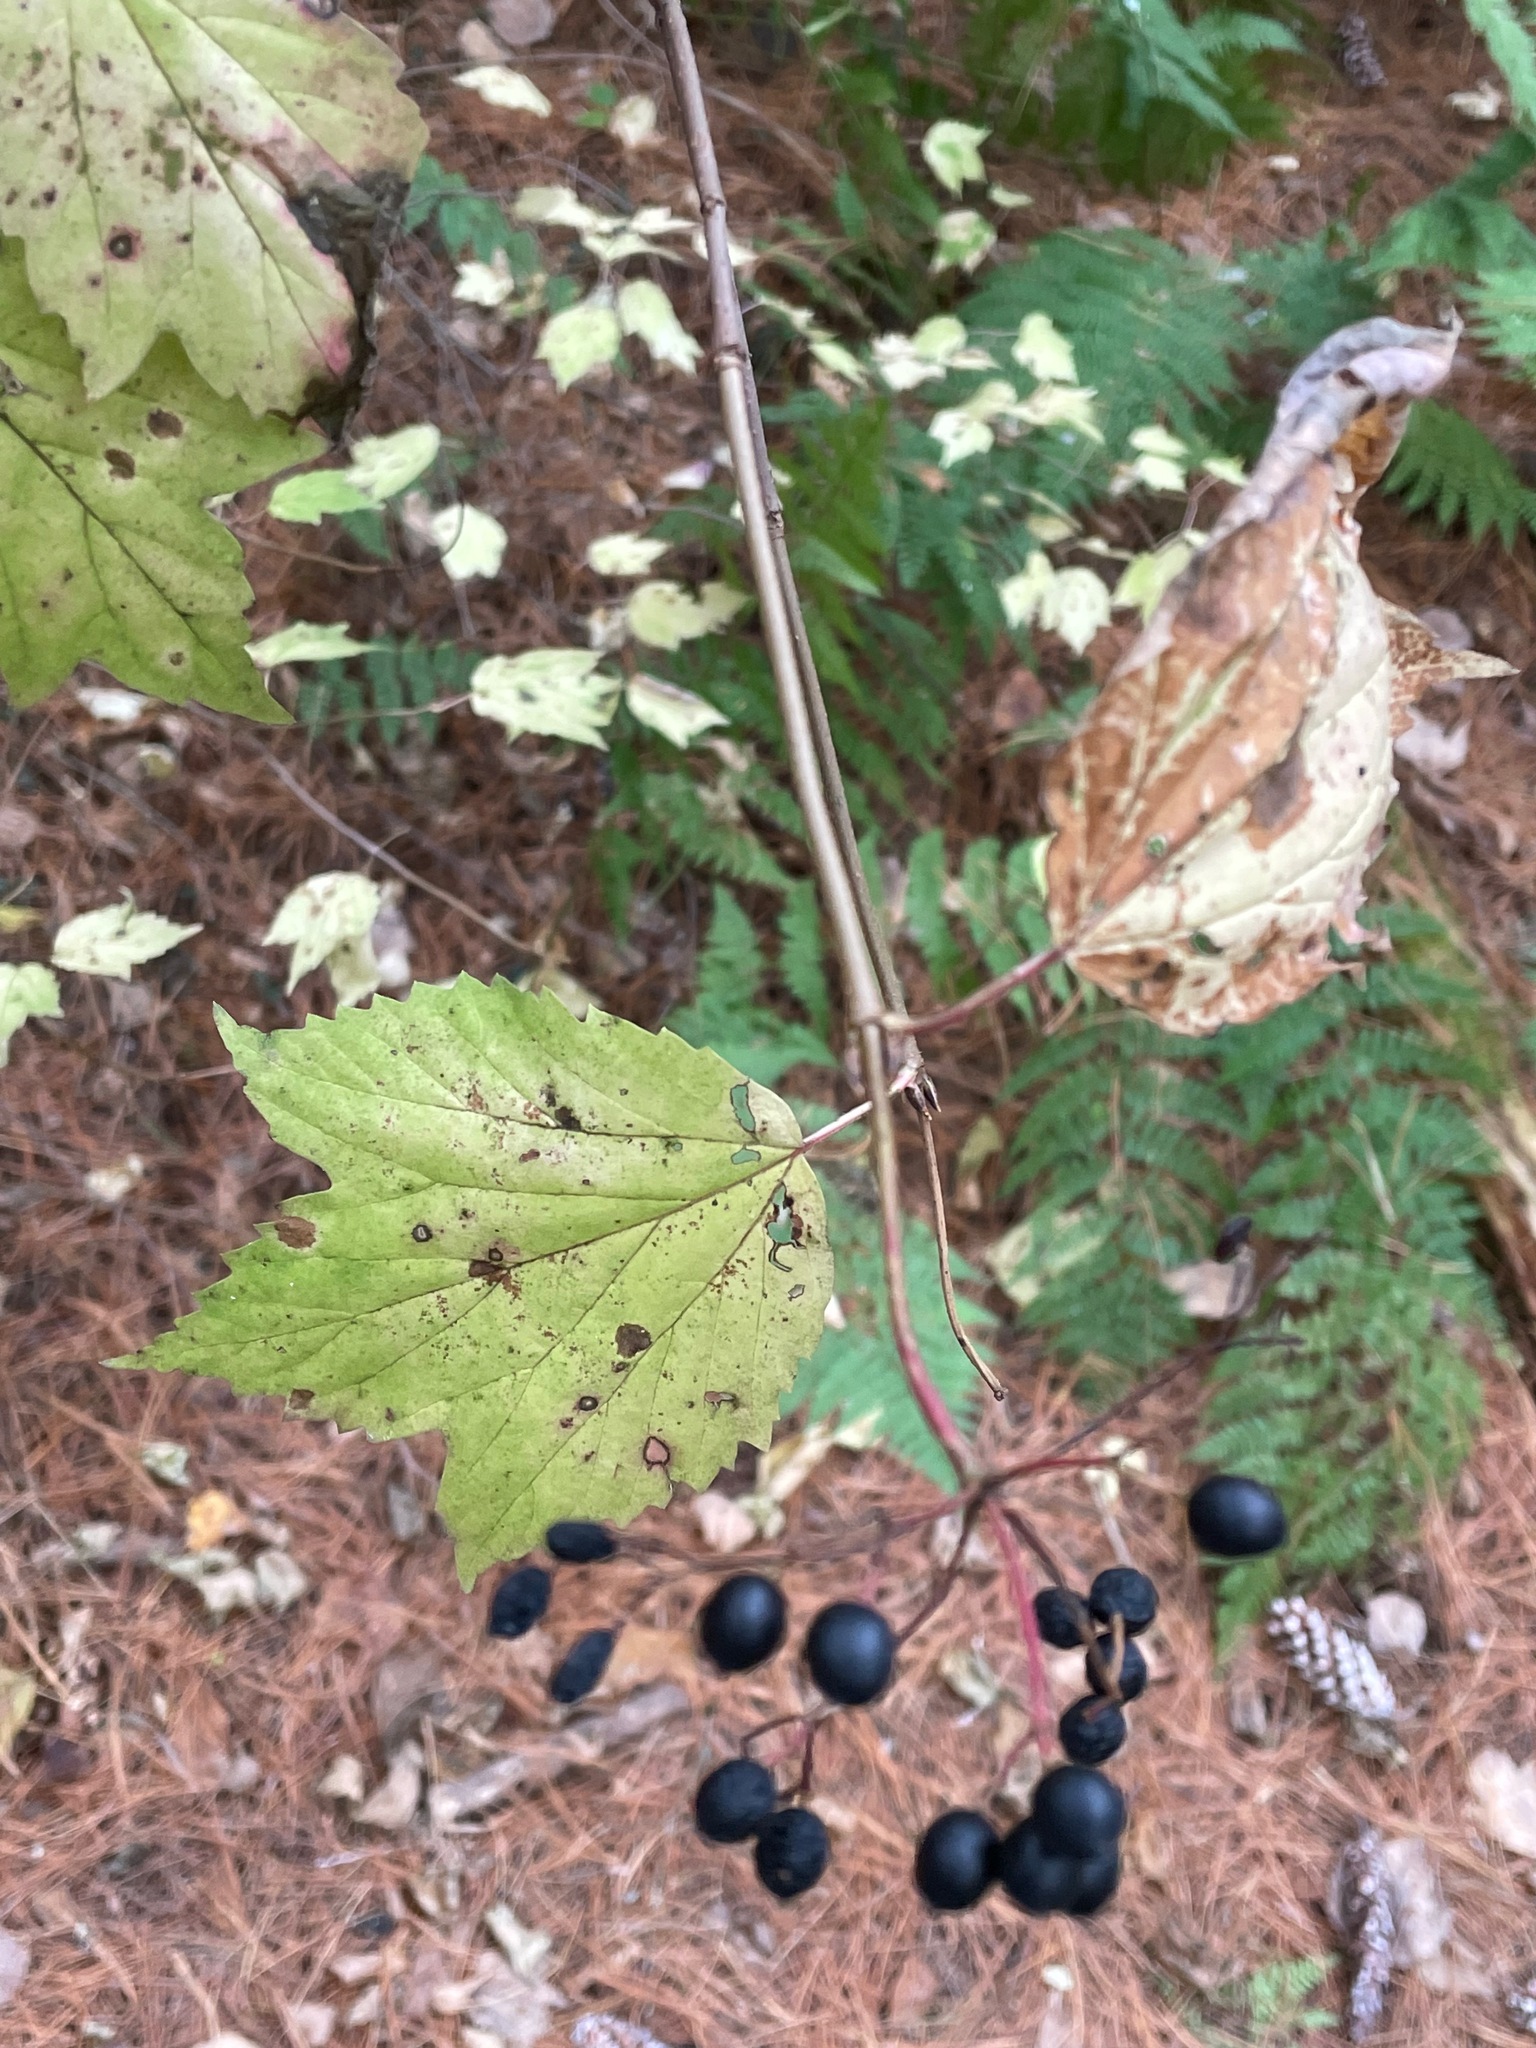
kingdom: Plantae
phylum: Tracheophyta
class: Magnoliopsida
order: Dipsacales
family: Viburnaceae
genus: Viburnum
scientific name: Viburnum acerifolium
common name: Dockmackie
